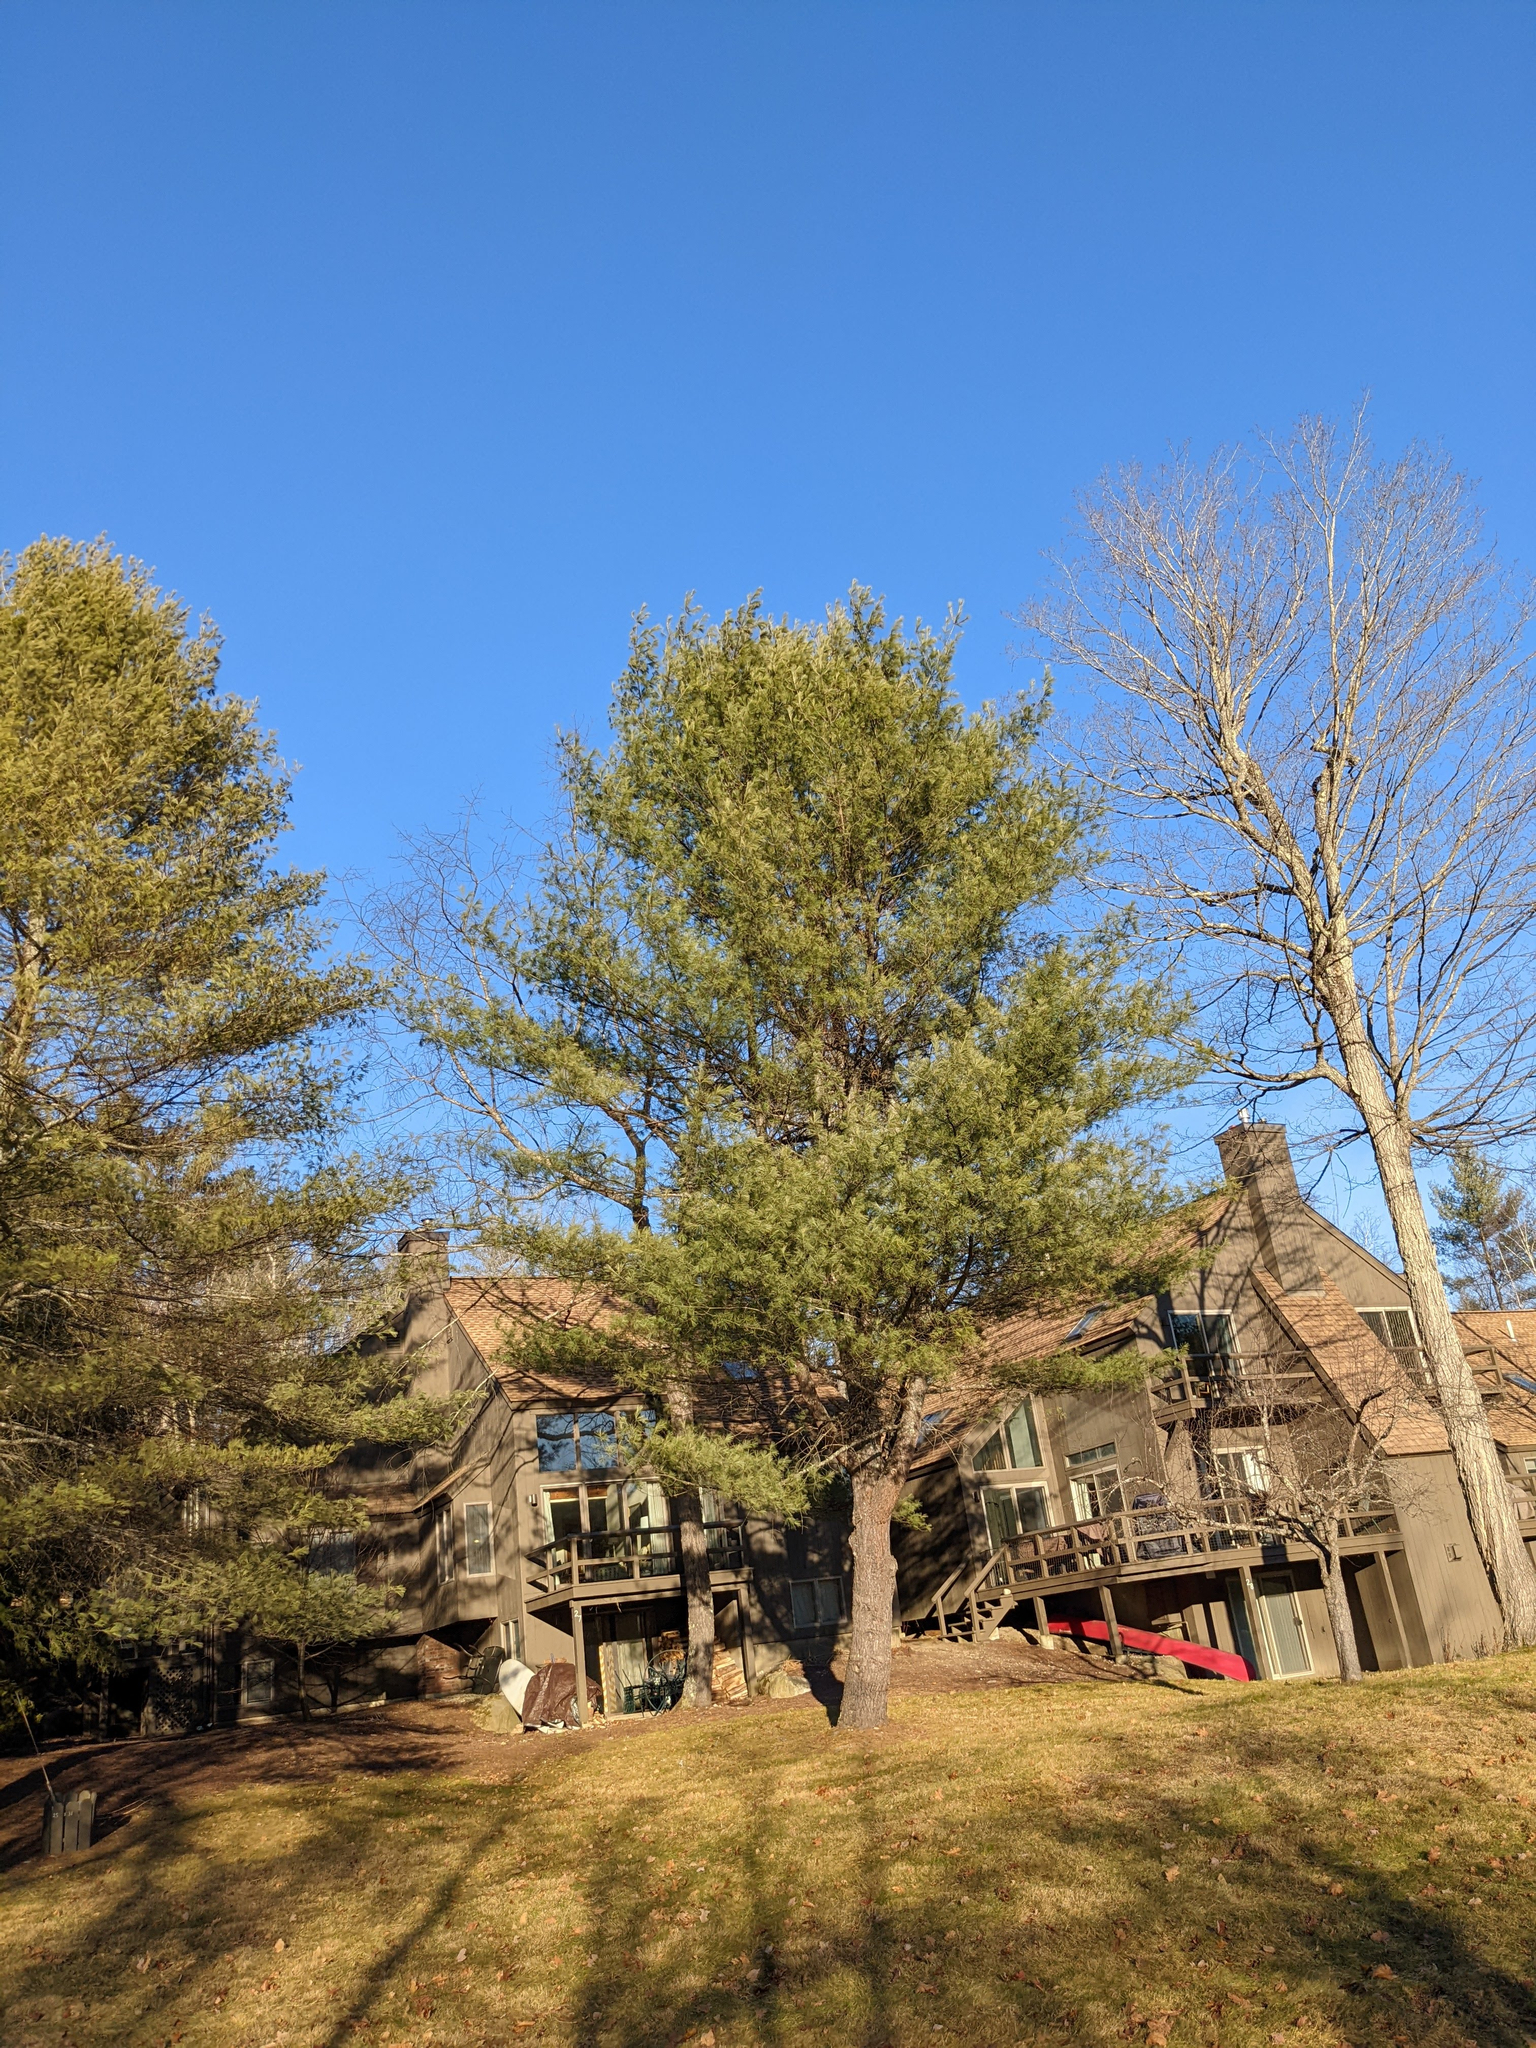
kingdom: Plantae
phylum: Tracheophyta
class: Pinopsida
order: Pinales
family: Pinaceae
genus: Pinus
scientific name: Pinus strobus
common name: Weymouth pine
